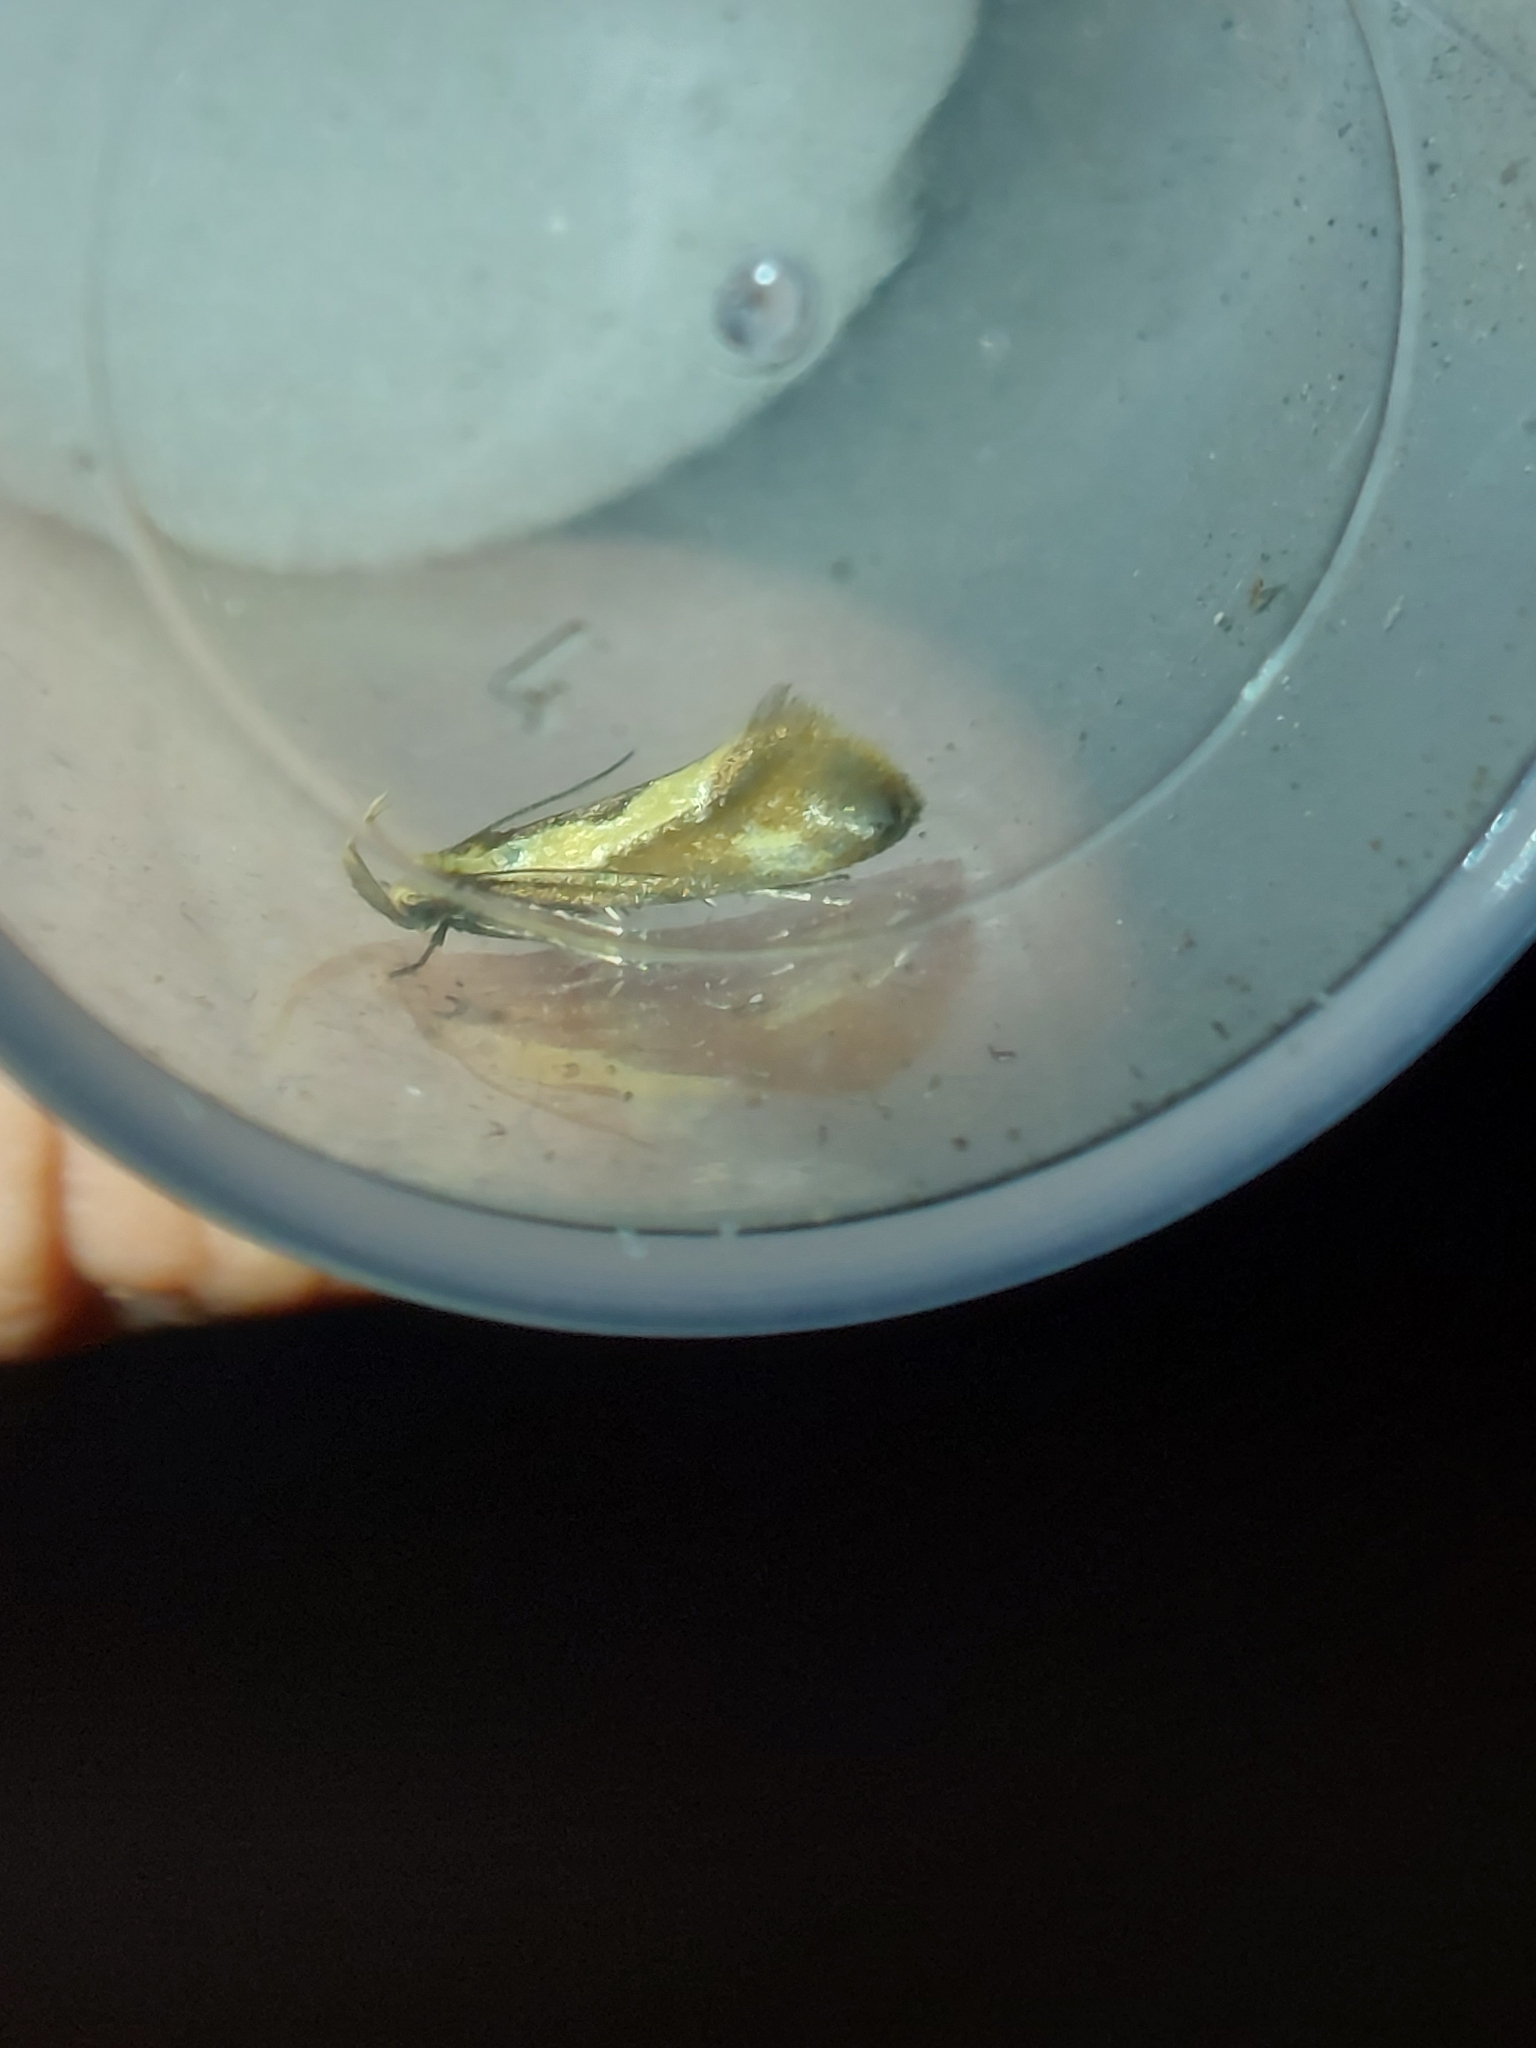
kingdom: Animalia
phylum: Arthropoda
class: Insecta
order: Lepidoptera
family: Oecophoridae
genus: Harpella
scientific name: Harpella forficella
